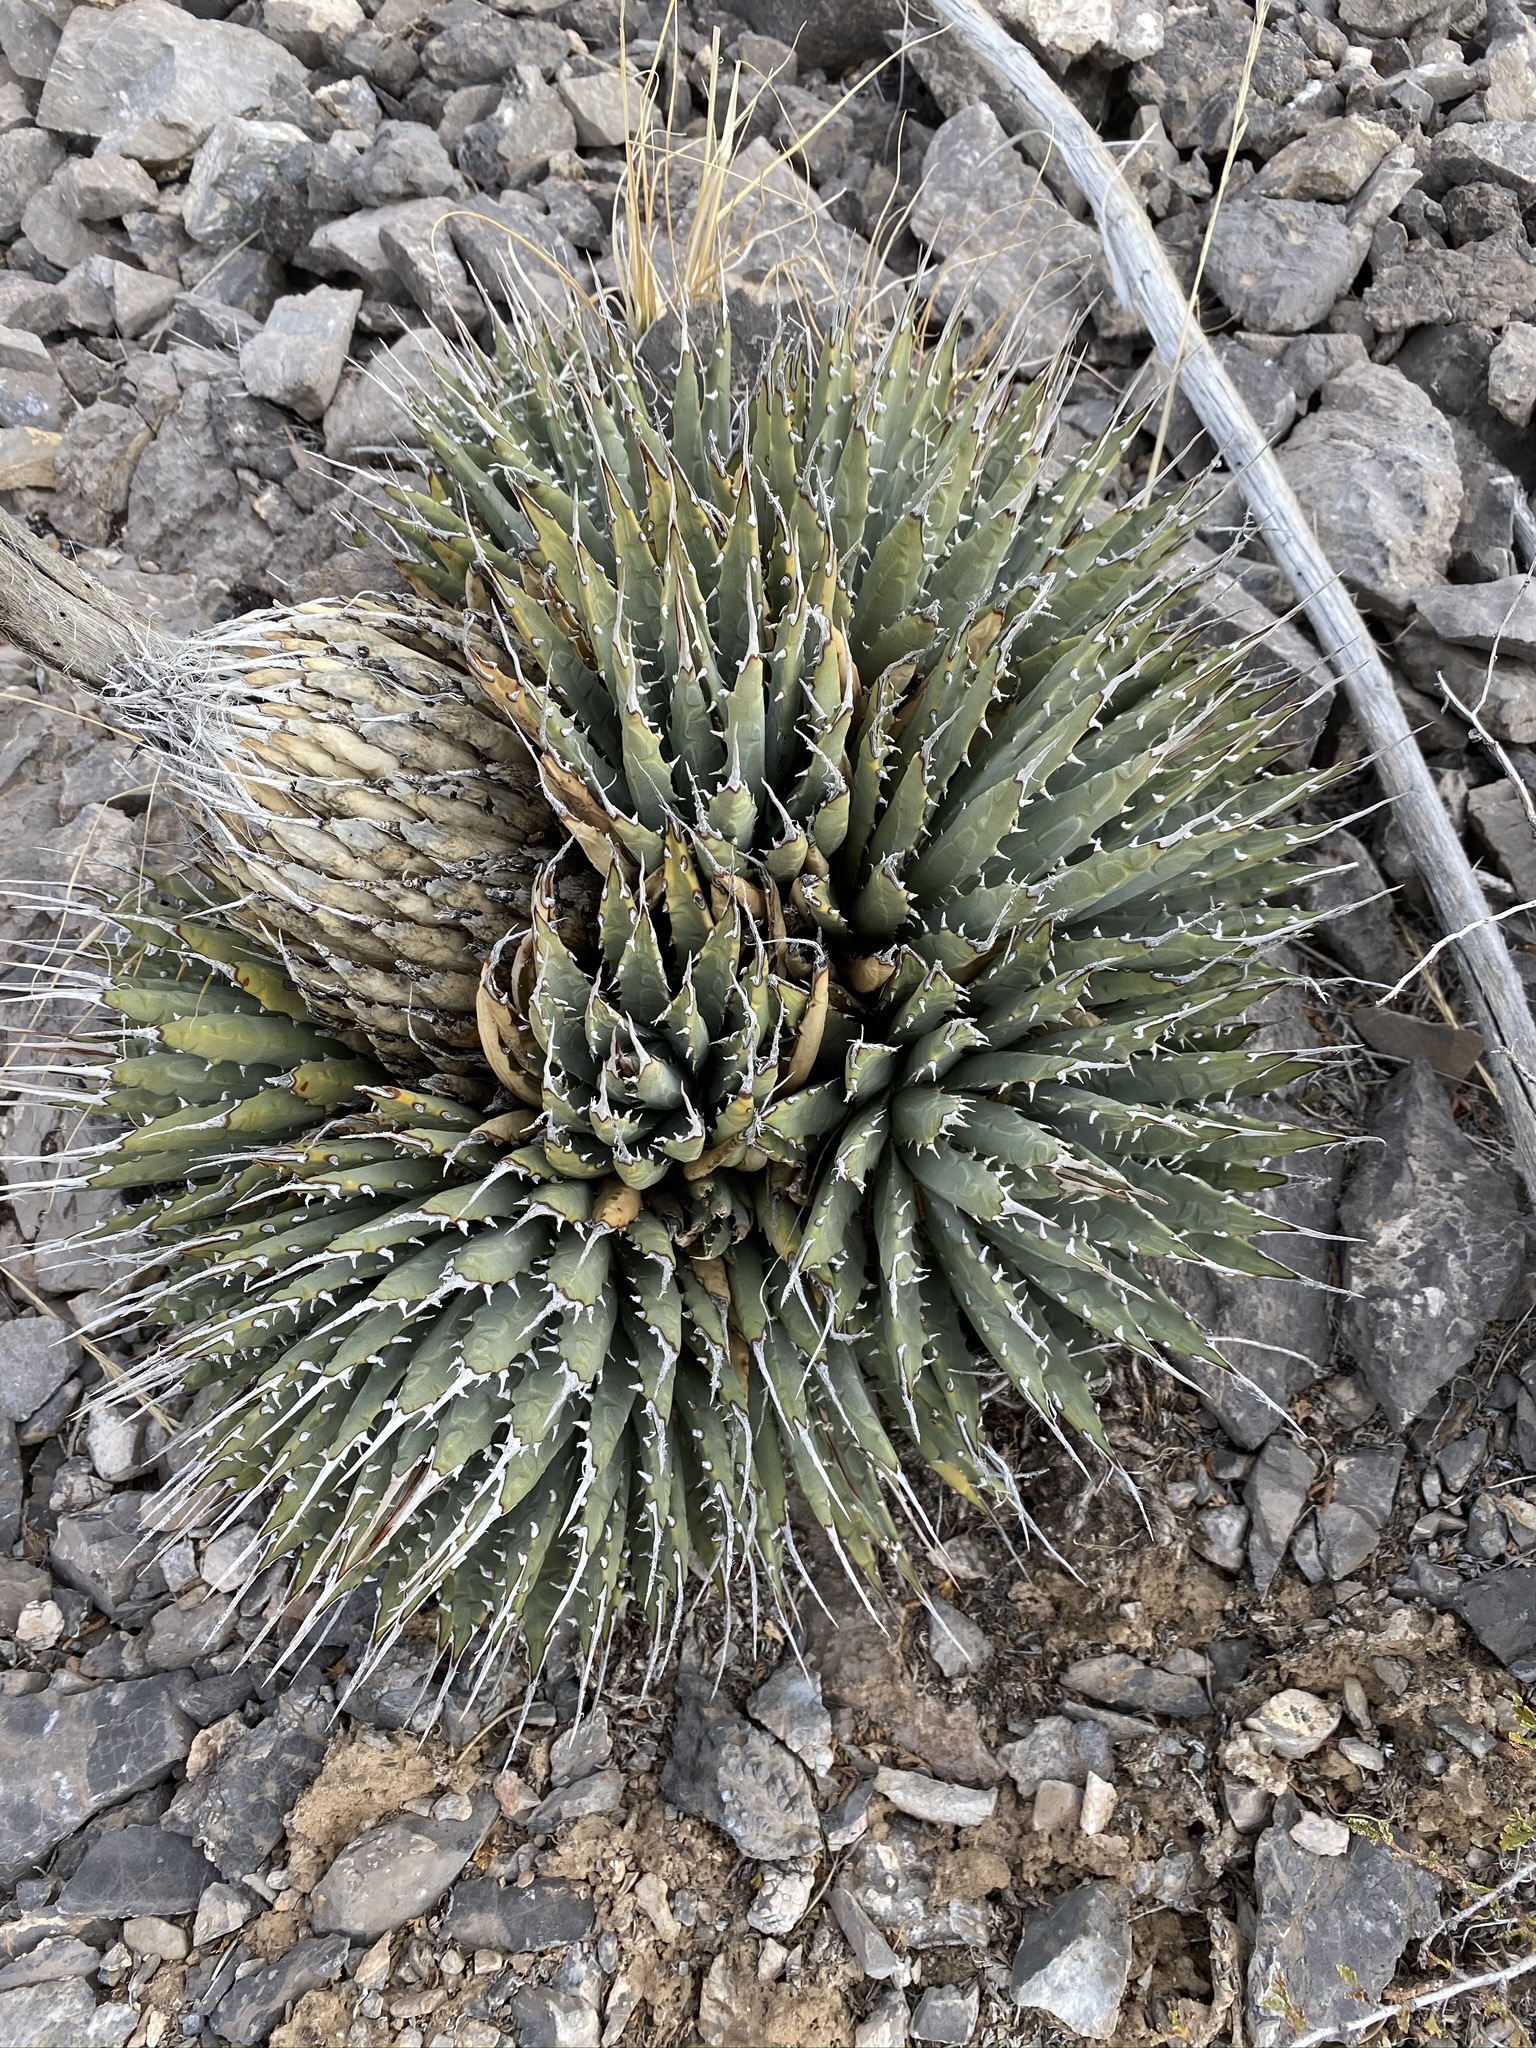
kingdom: Plantae
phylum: Tracheophyta
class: Liliopsida
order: Asparagales
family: Asparagaceae
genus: Agave
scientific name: Agave utahensis
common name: Utah agave
